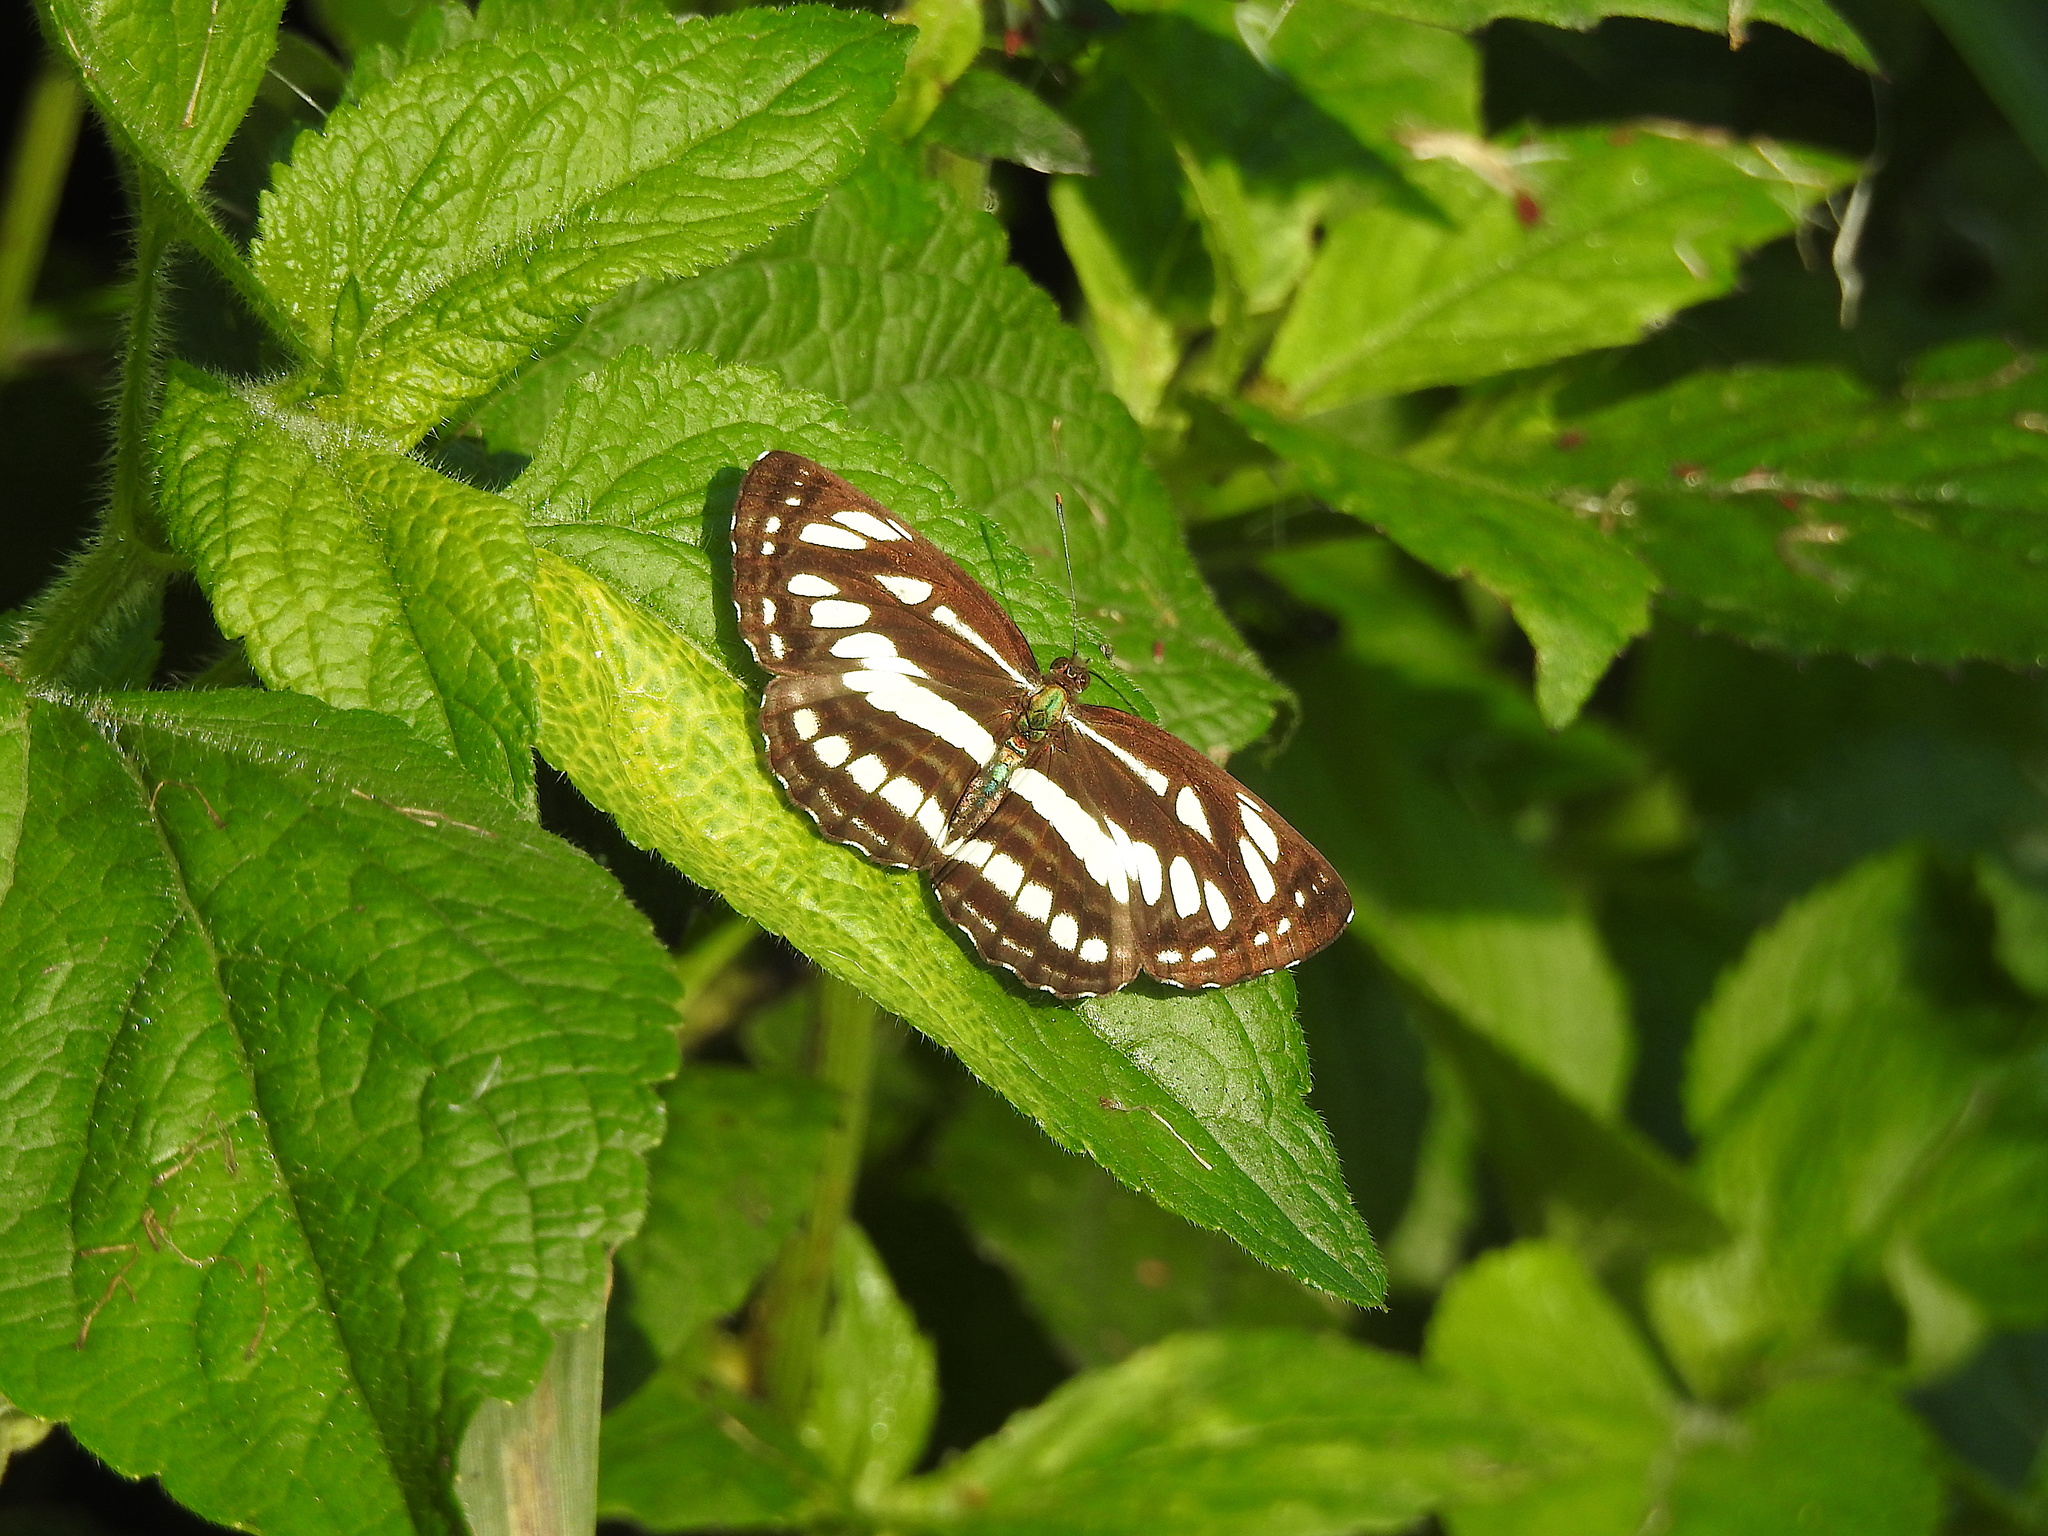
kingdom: Animalia
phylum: Arthropoda
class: Insecta
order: Lepidoptera
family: Nymphalidae
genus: Neptis
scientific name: Neptis hylas
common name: Common sailer
